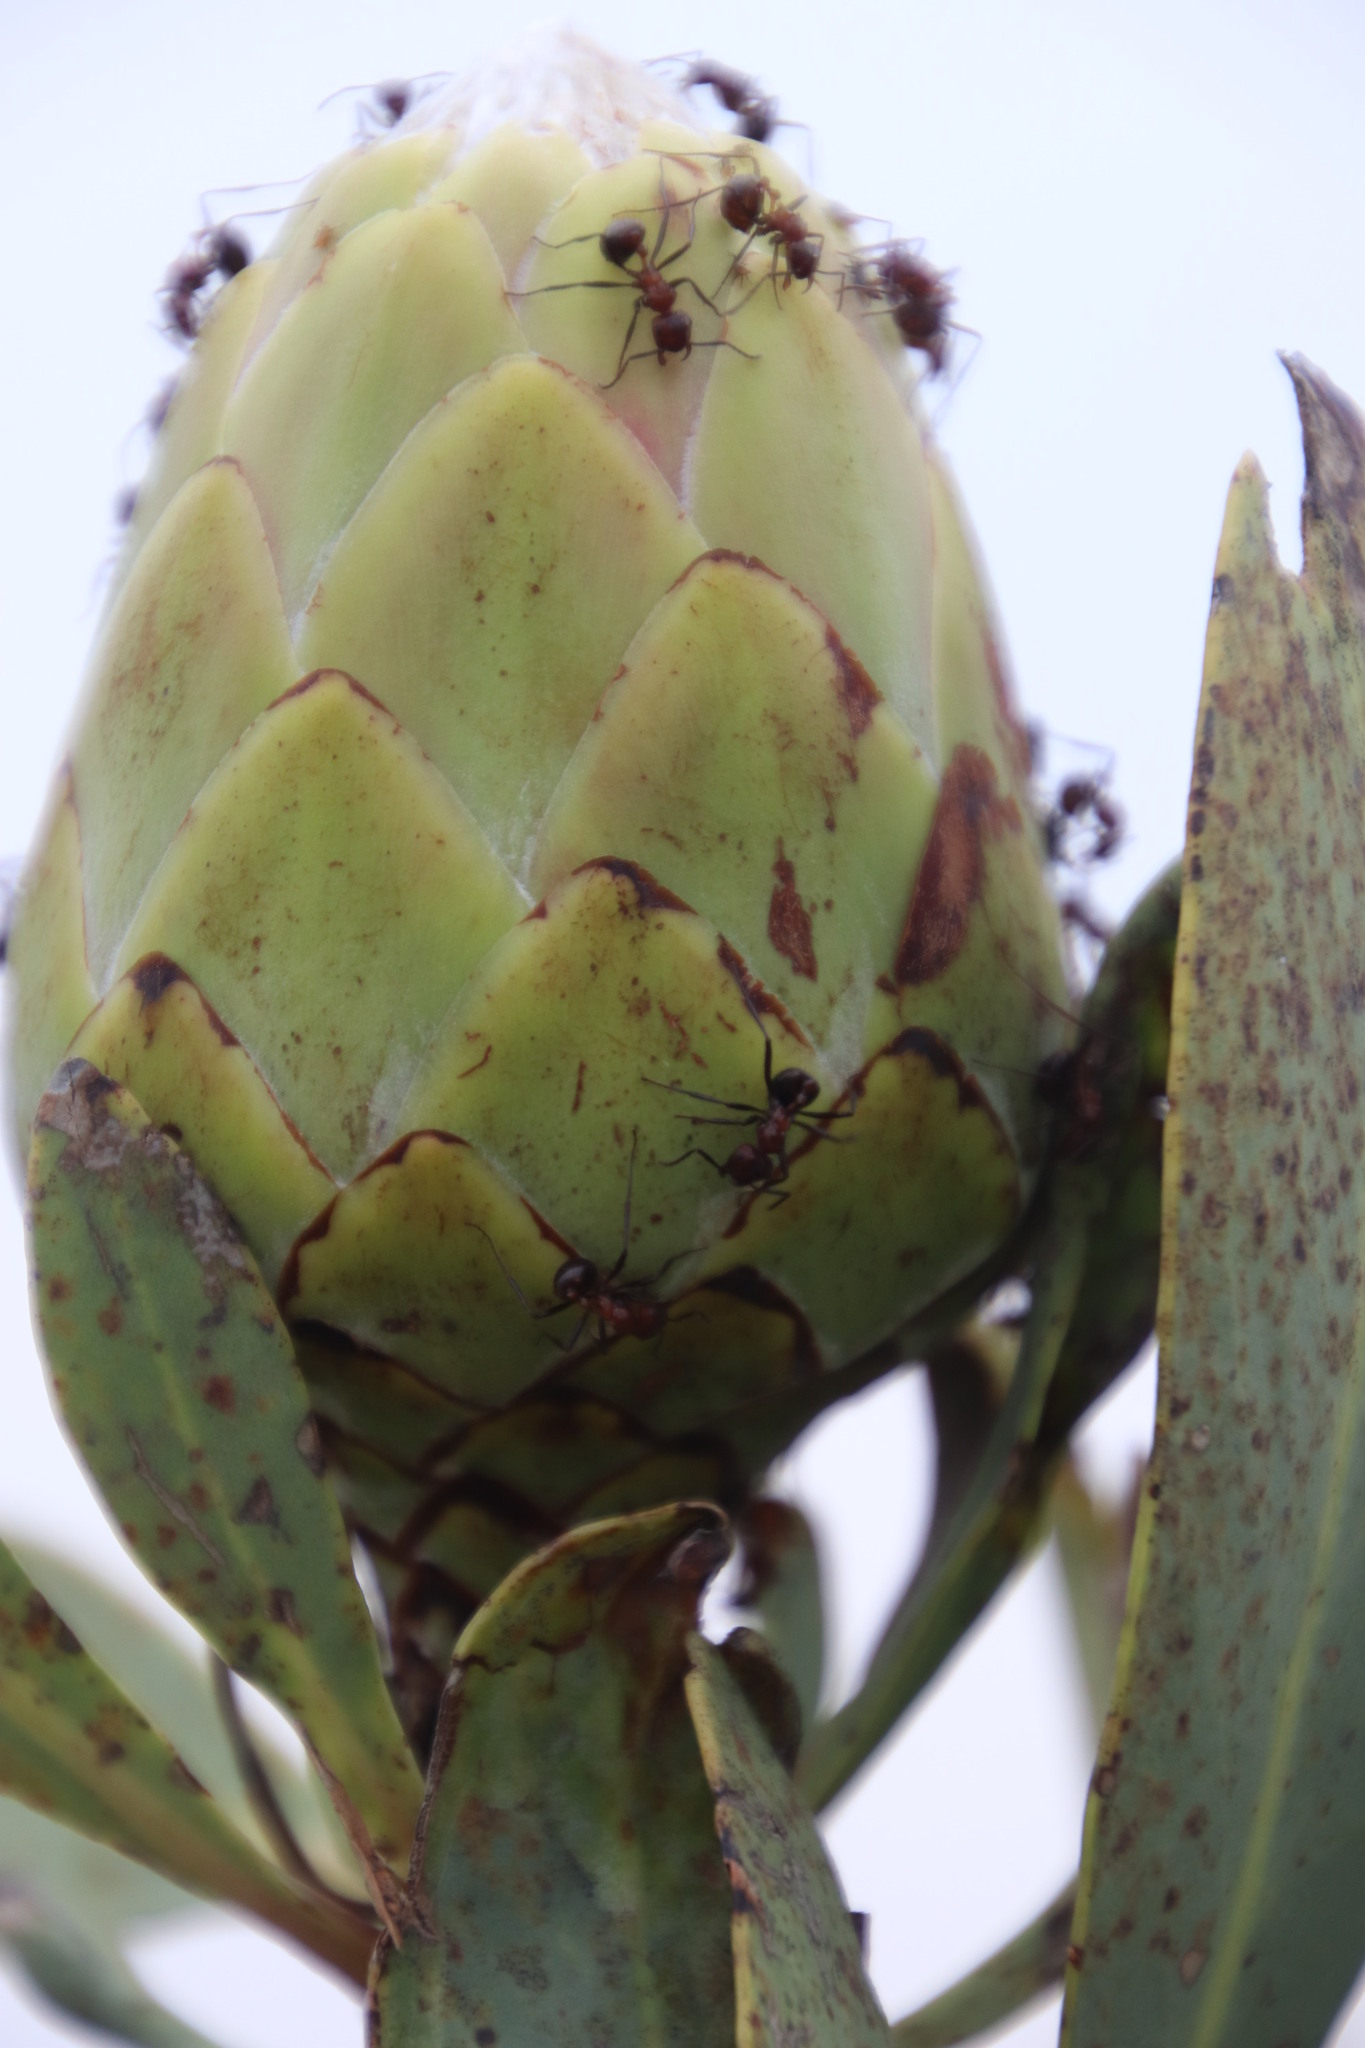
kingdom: Animalia
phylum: Arthropoda
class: Insecta
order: Hymenoptera
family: Formicidae
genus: Myrmicaria
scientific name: Myrmicaria natalensis
